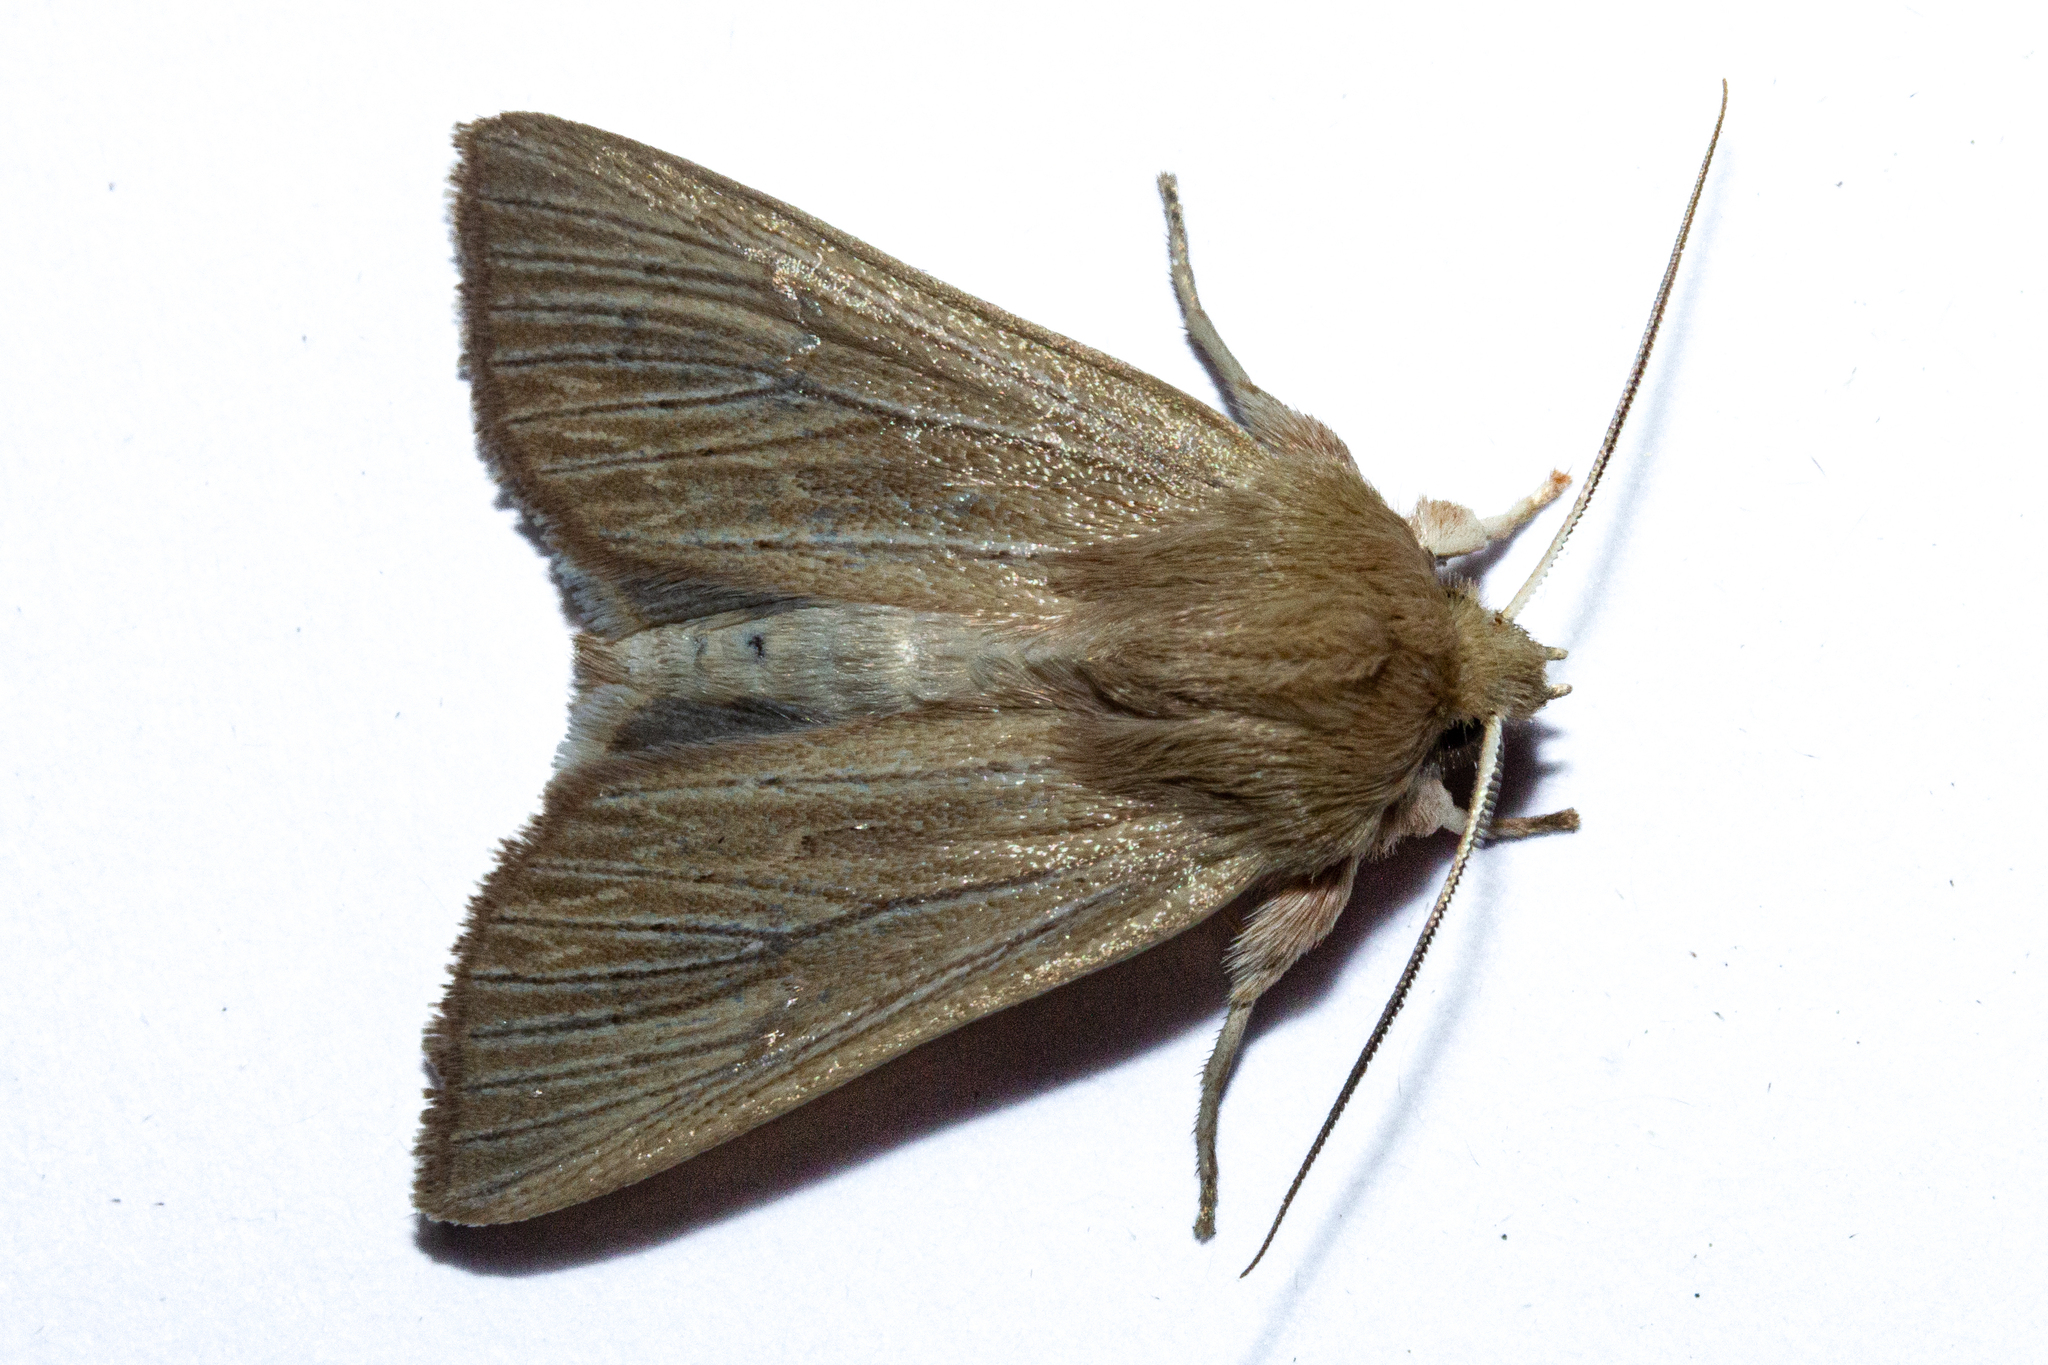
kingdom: Animalia
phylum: Arthropoda
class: Insecta
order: Lepidoptera
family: Noctuidae
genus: Ichneutica
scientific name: Ichneutica arotis
